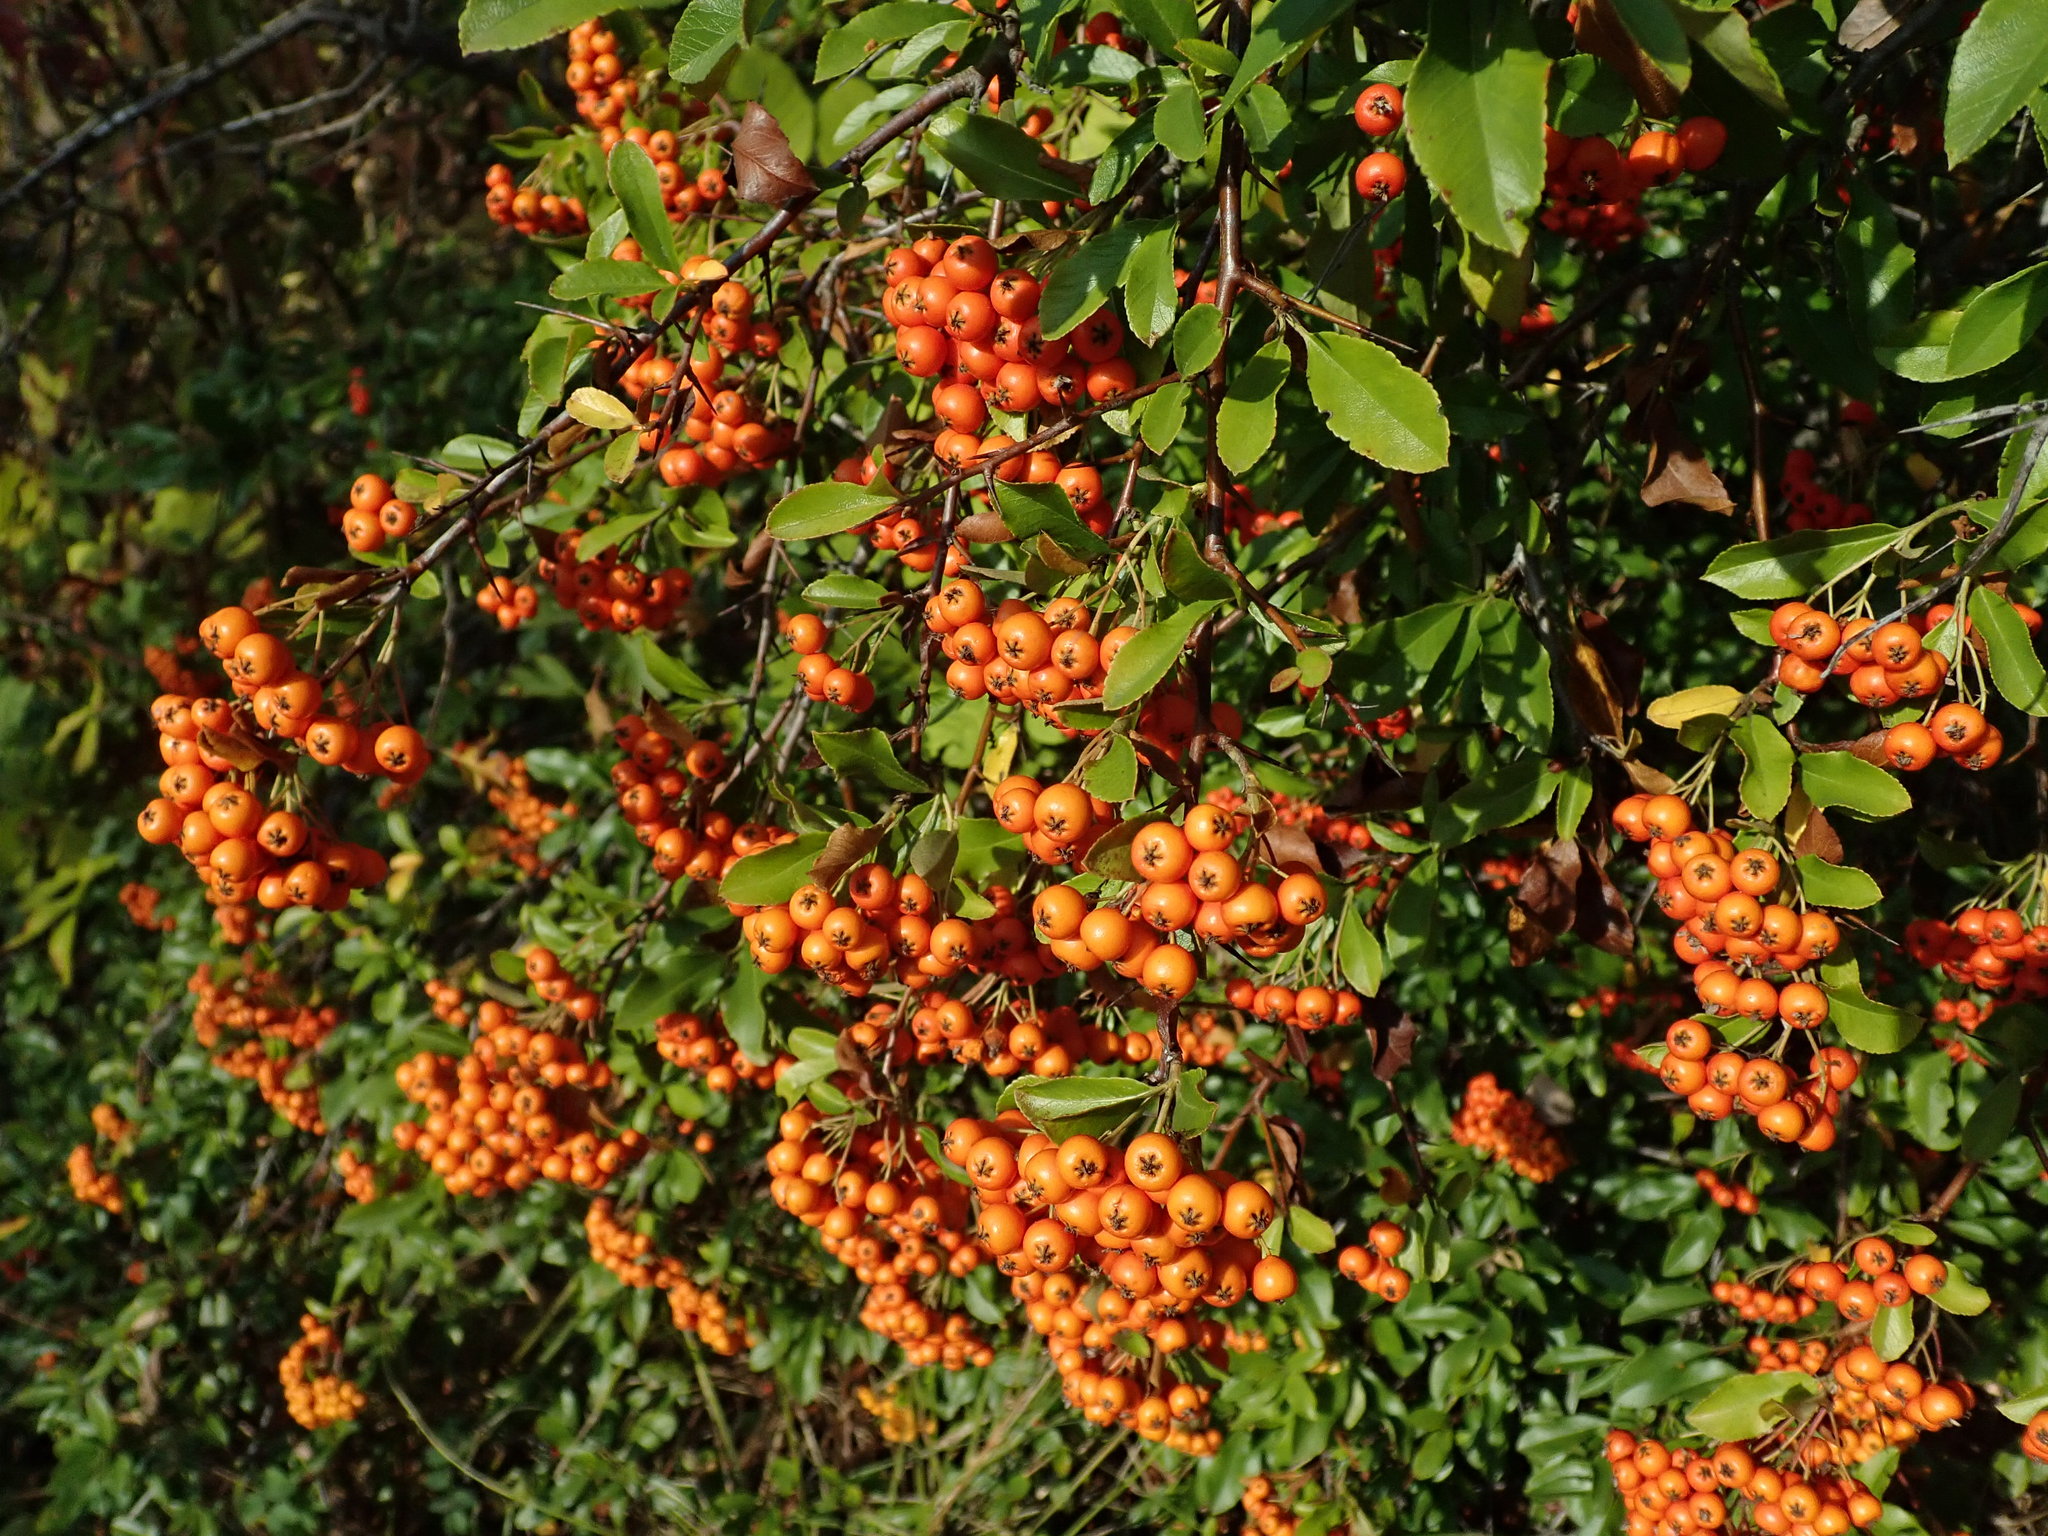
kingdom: Plantae
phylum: Tracheophyta
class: Magnoliopsida
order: Rosales
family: Rosaceae
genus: Pyracantha
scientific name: Pyracantha coccinea
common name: Firethorn
